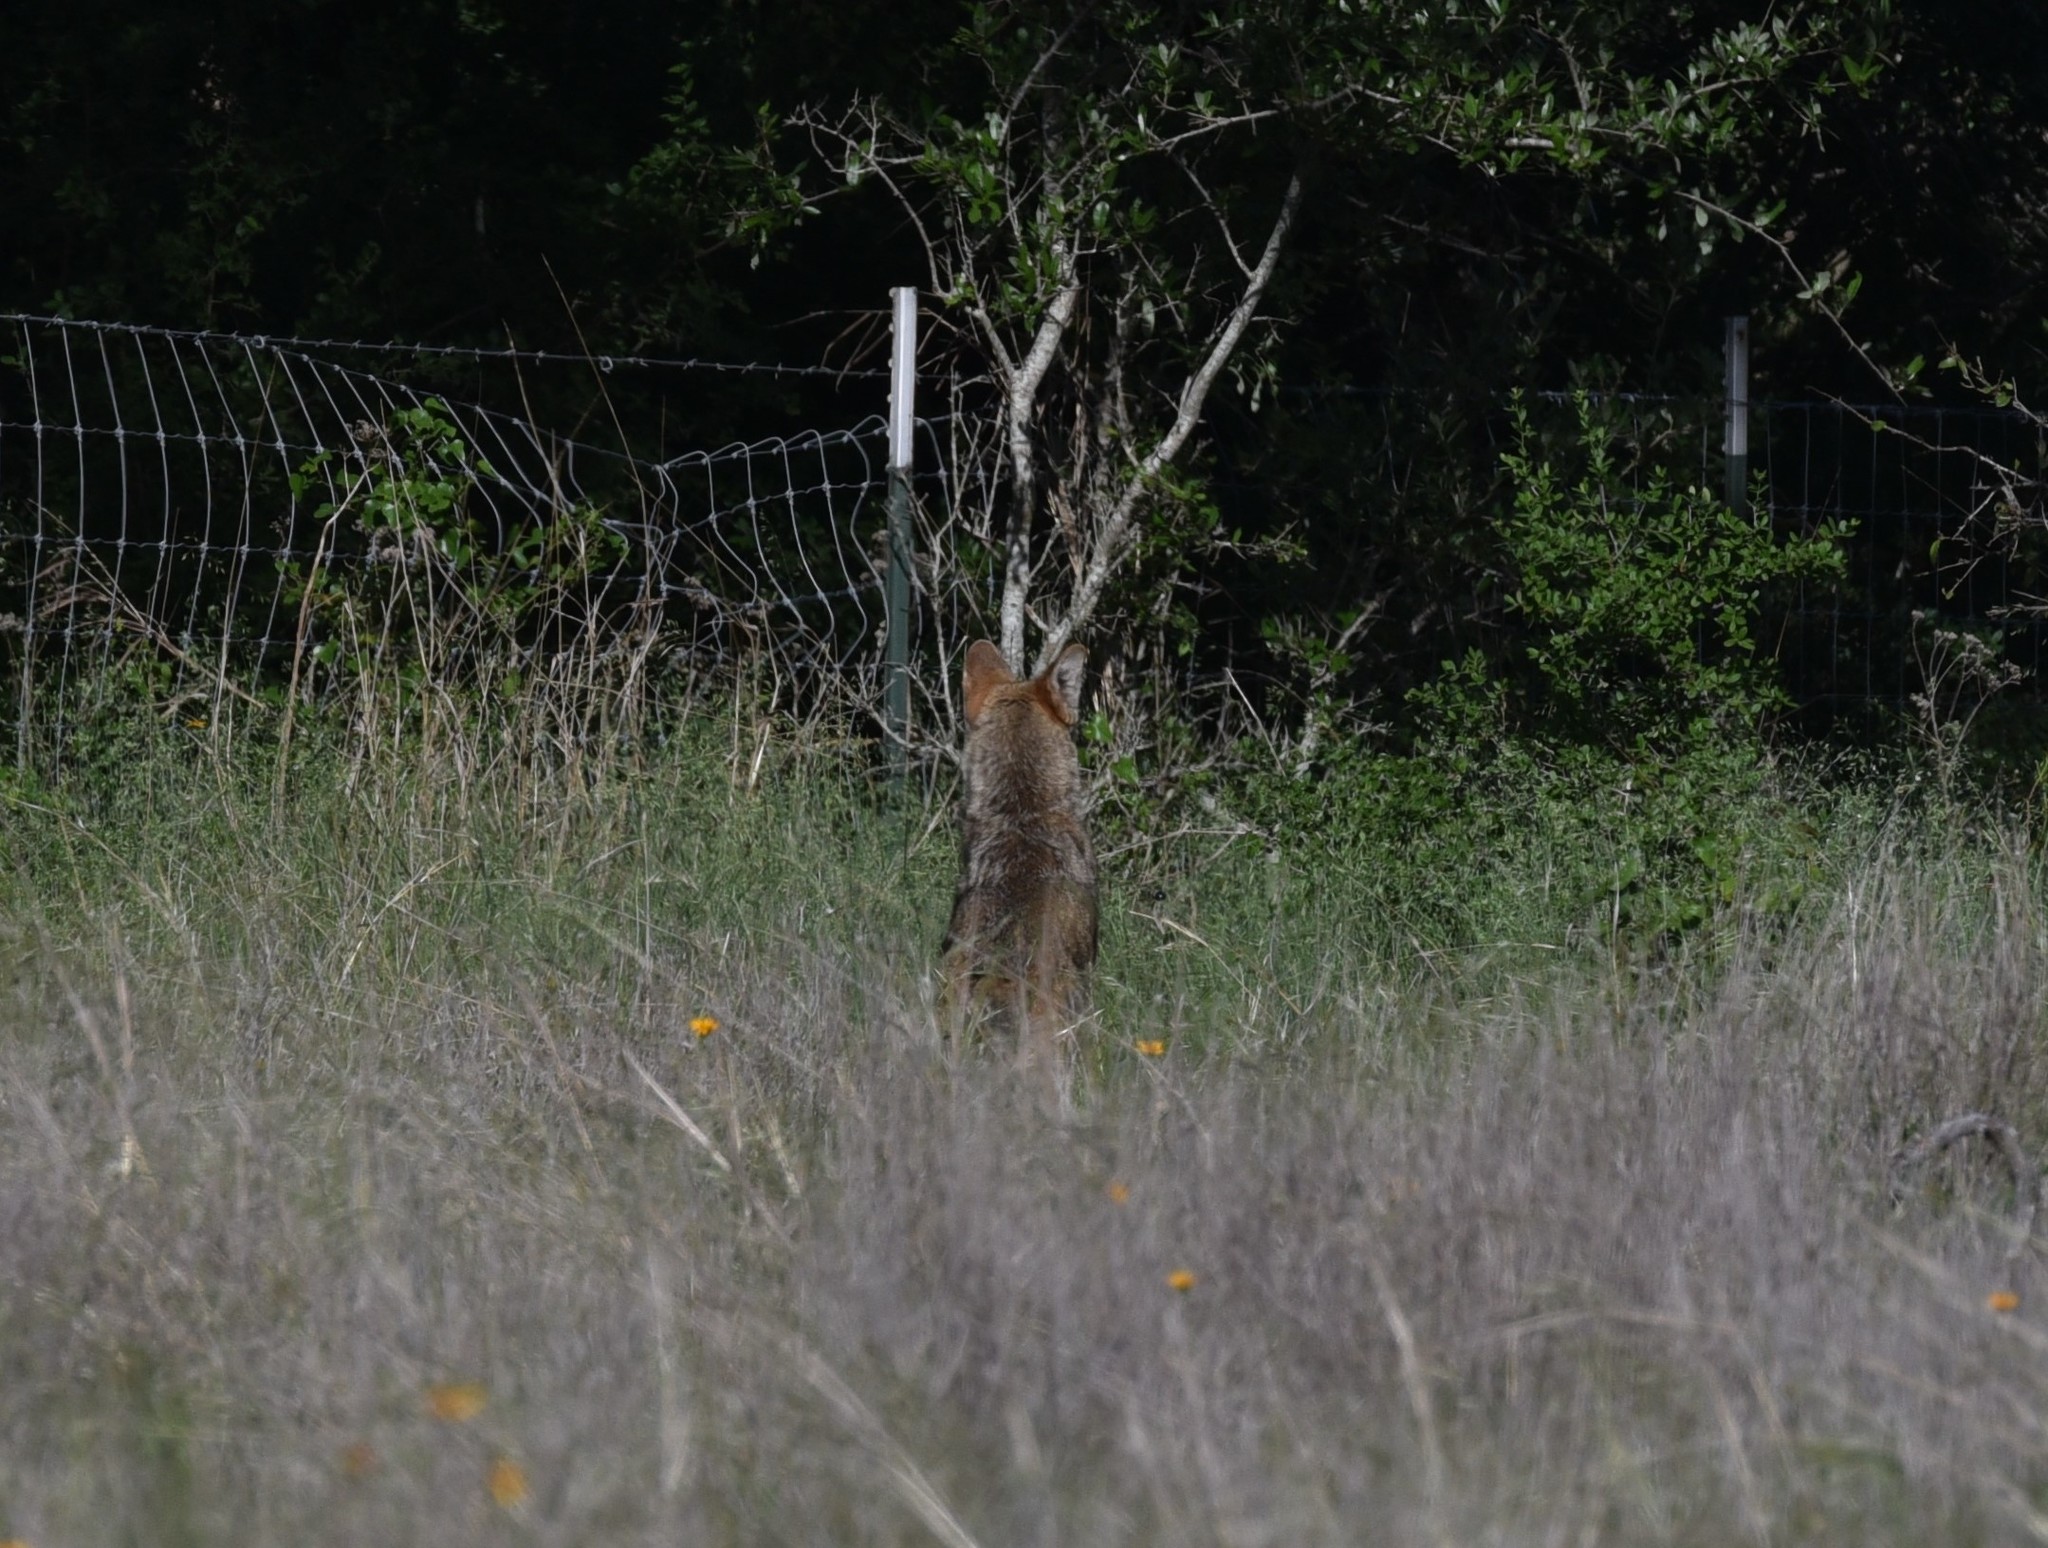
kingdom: Animalia
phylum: Chordata
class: Mammalia
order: Carnivora
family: Canidae
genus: Canis
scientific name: Canis latrans
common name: Coyote
